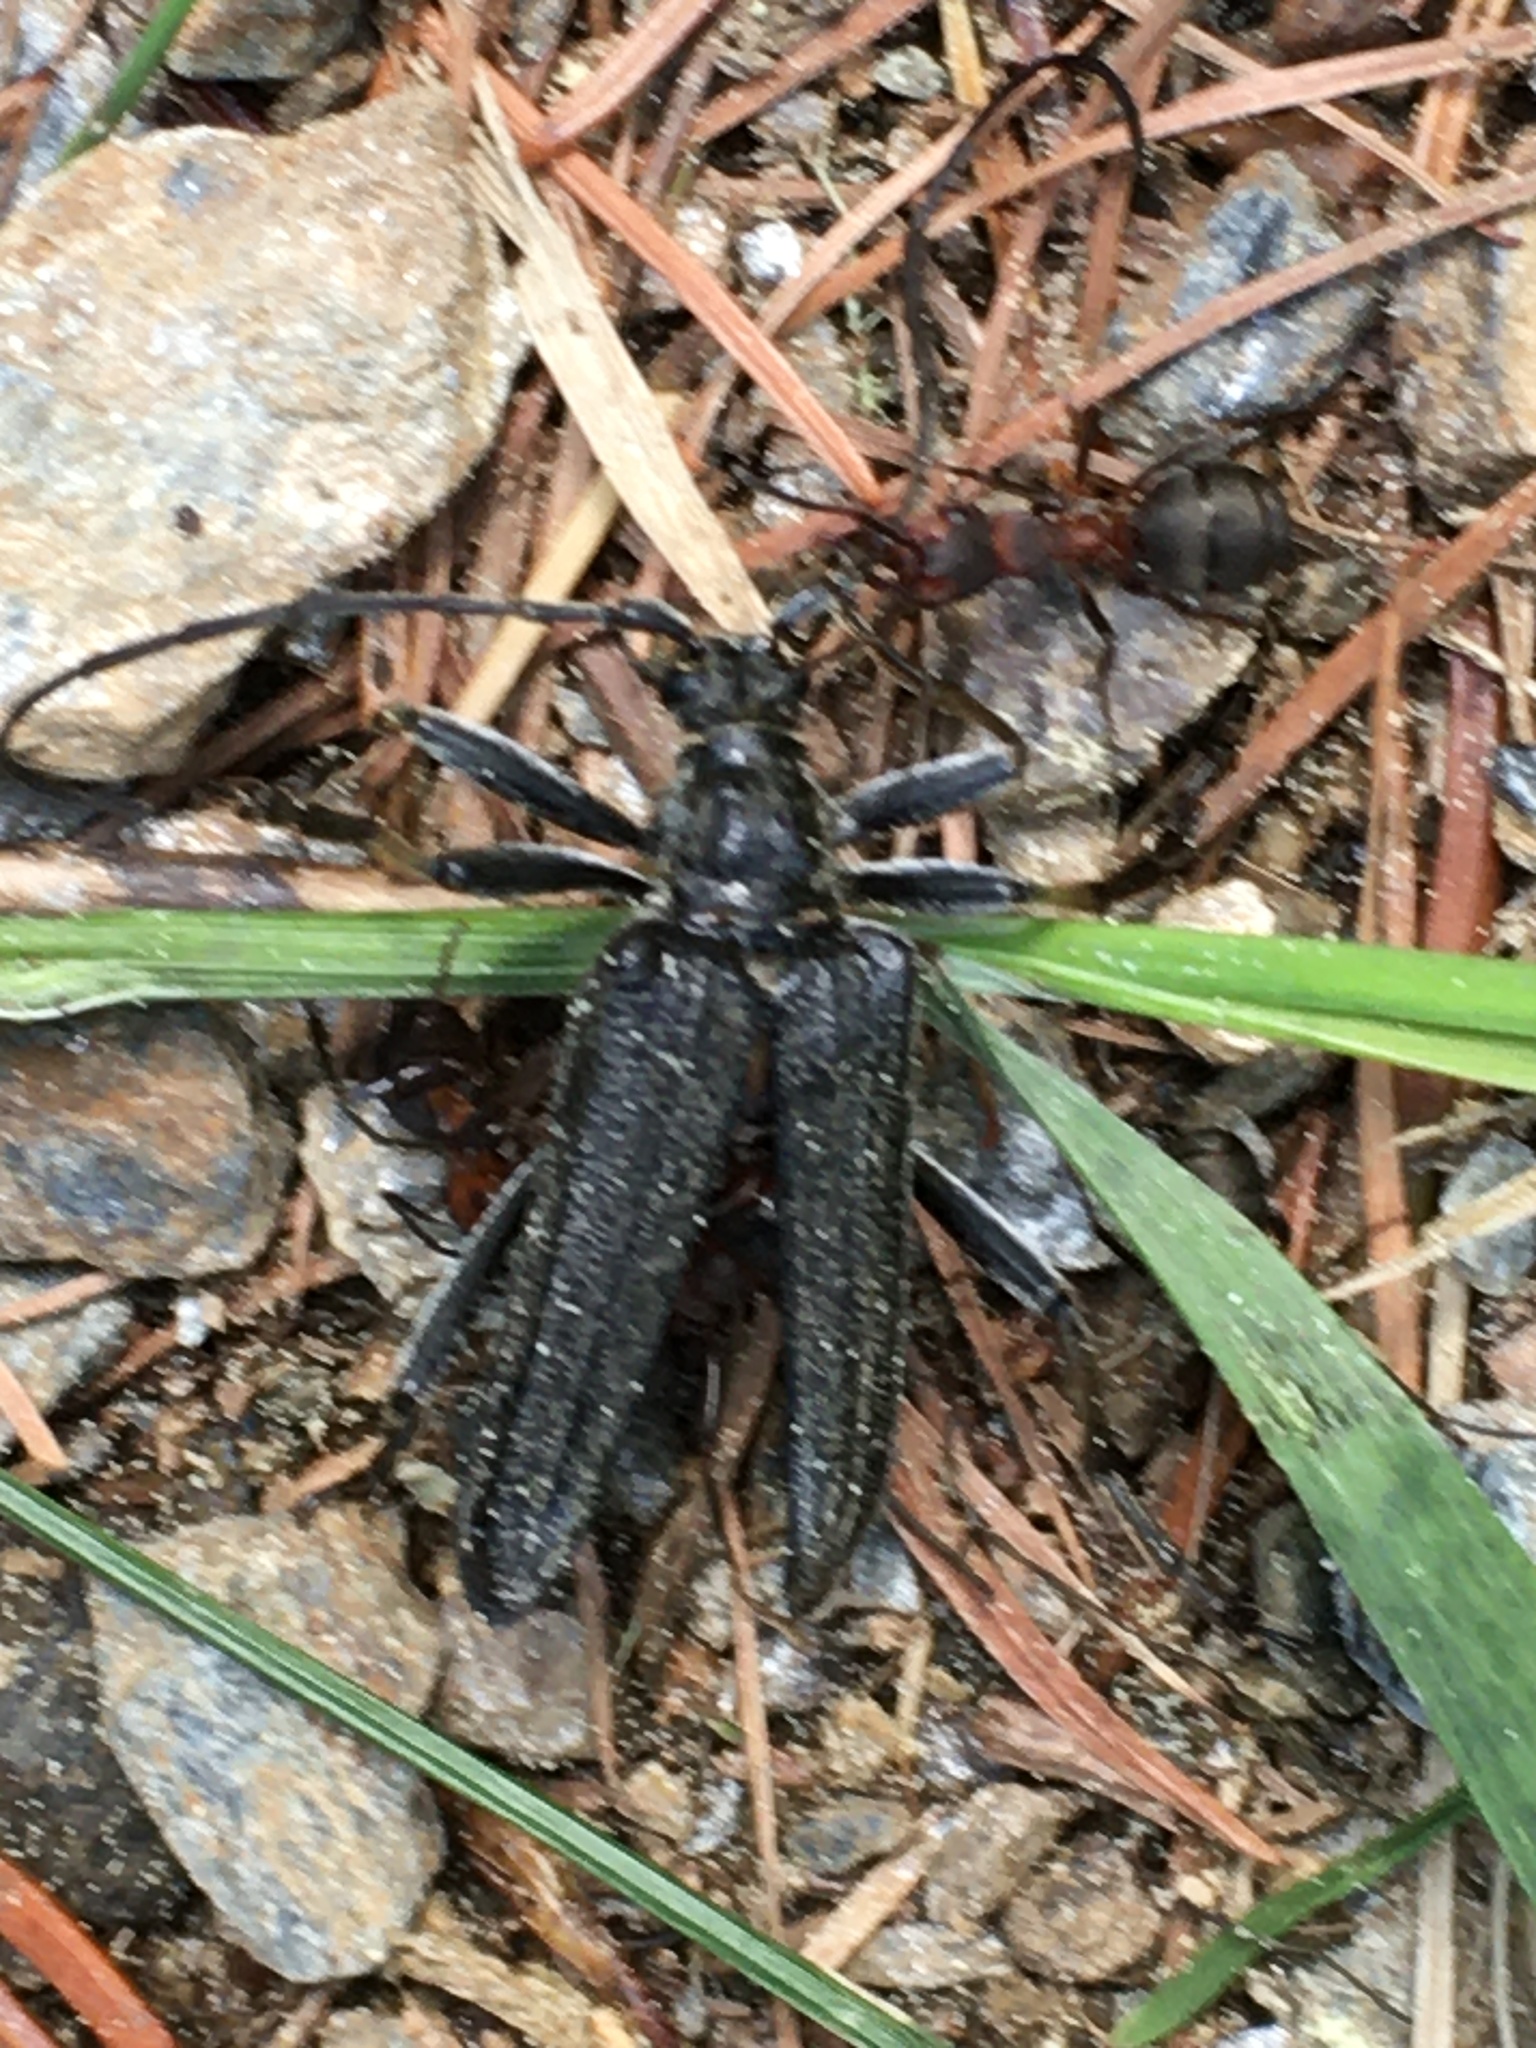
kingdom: Animalia
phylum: Arthropoda
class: Insecta
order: Coleoptera
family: Cerambycidae
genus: Oxymirus
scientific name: Oxymirus cursor
